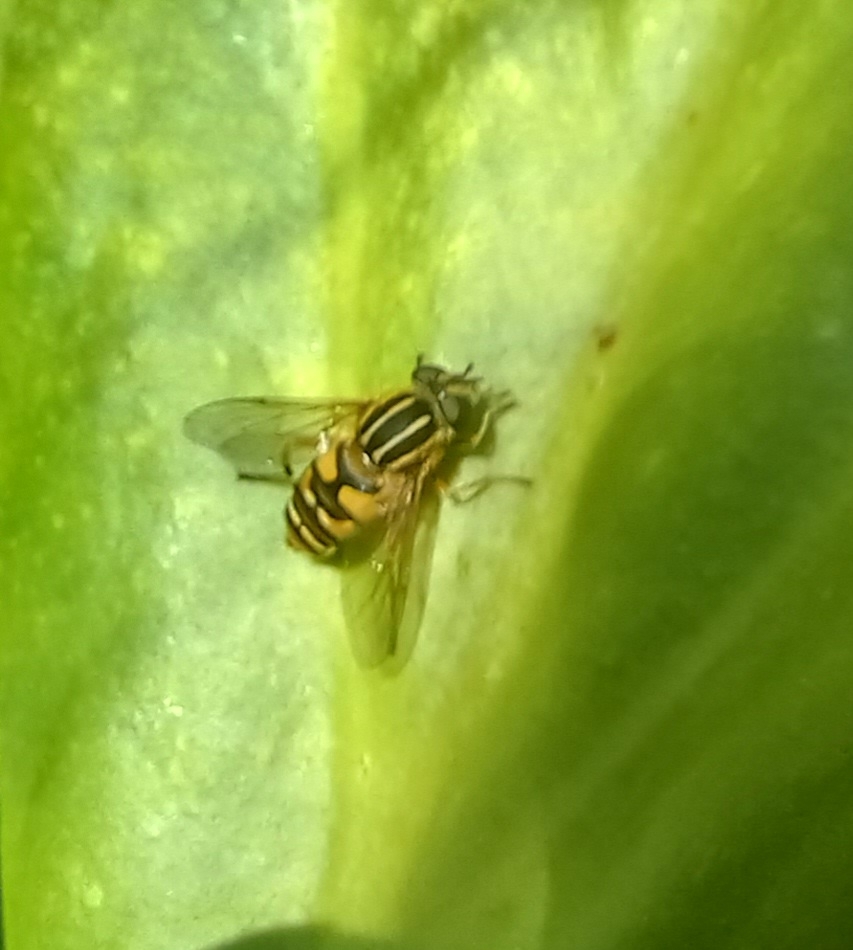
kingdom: Animalia
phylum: Arthropoda
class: Insecta
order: Diptera
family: Syrphidae
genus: Helophilus
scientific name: Helophilus pendulus
